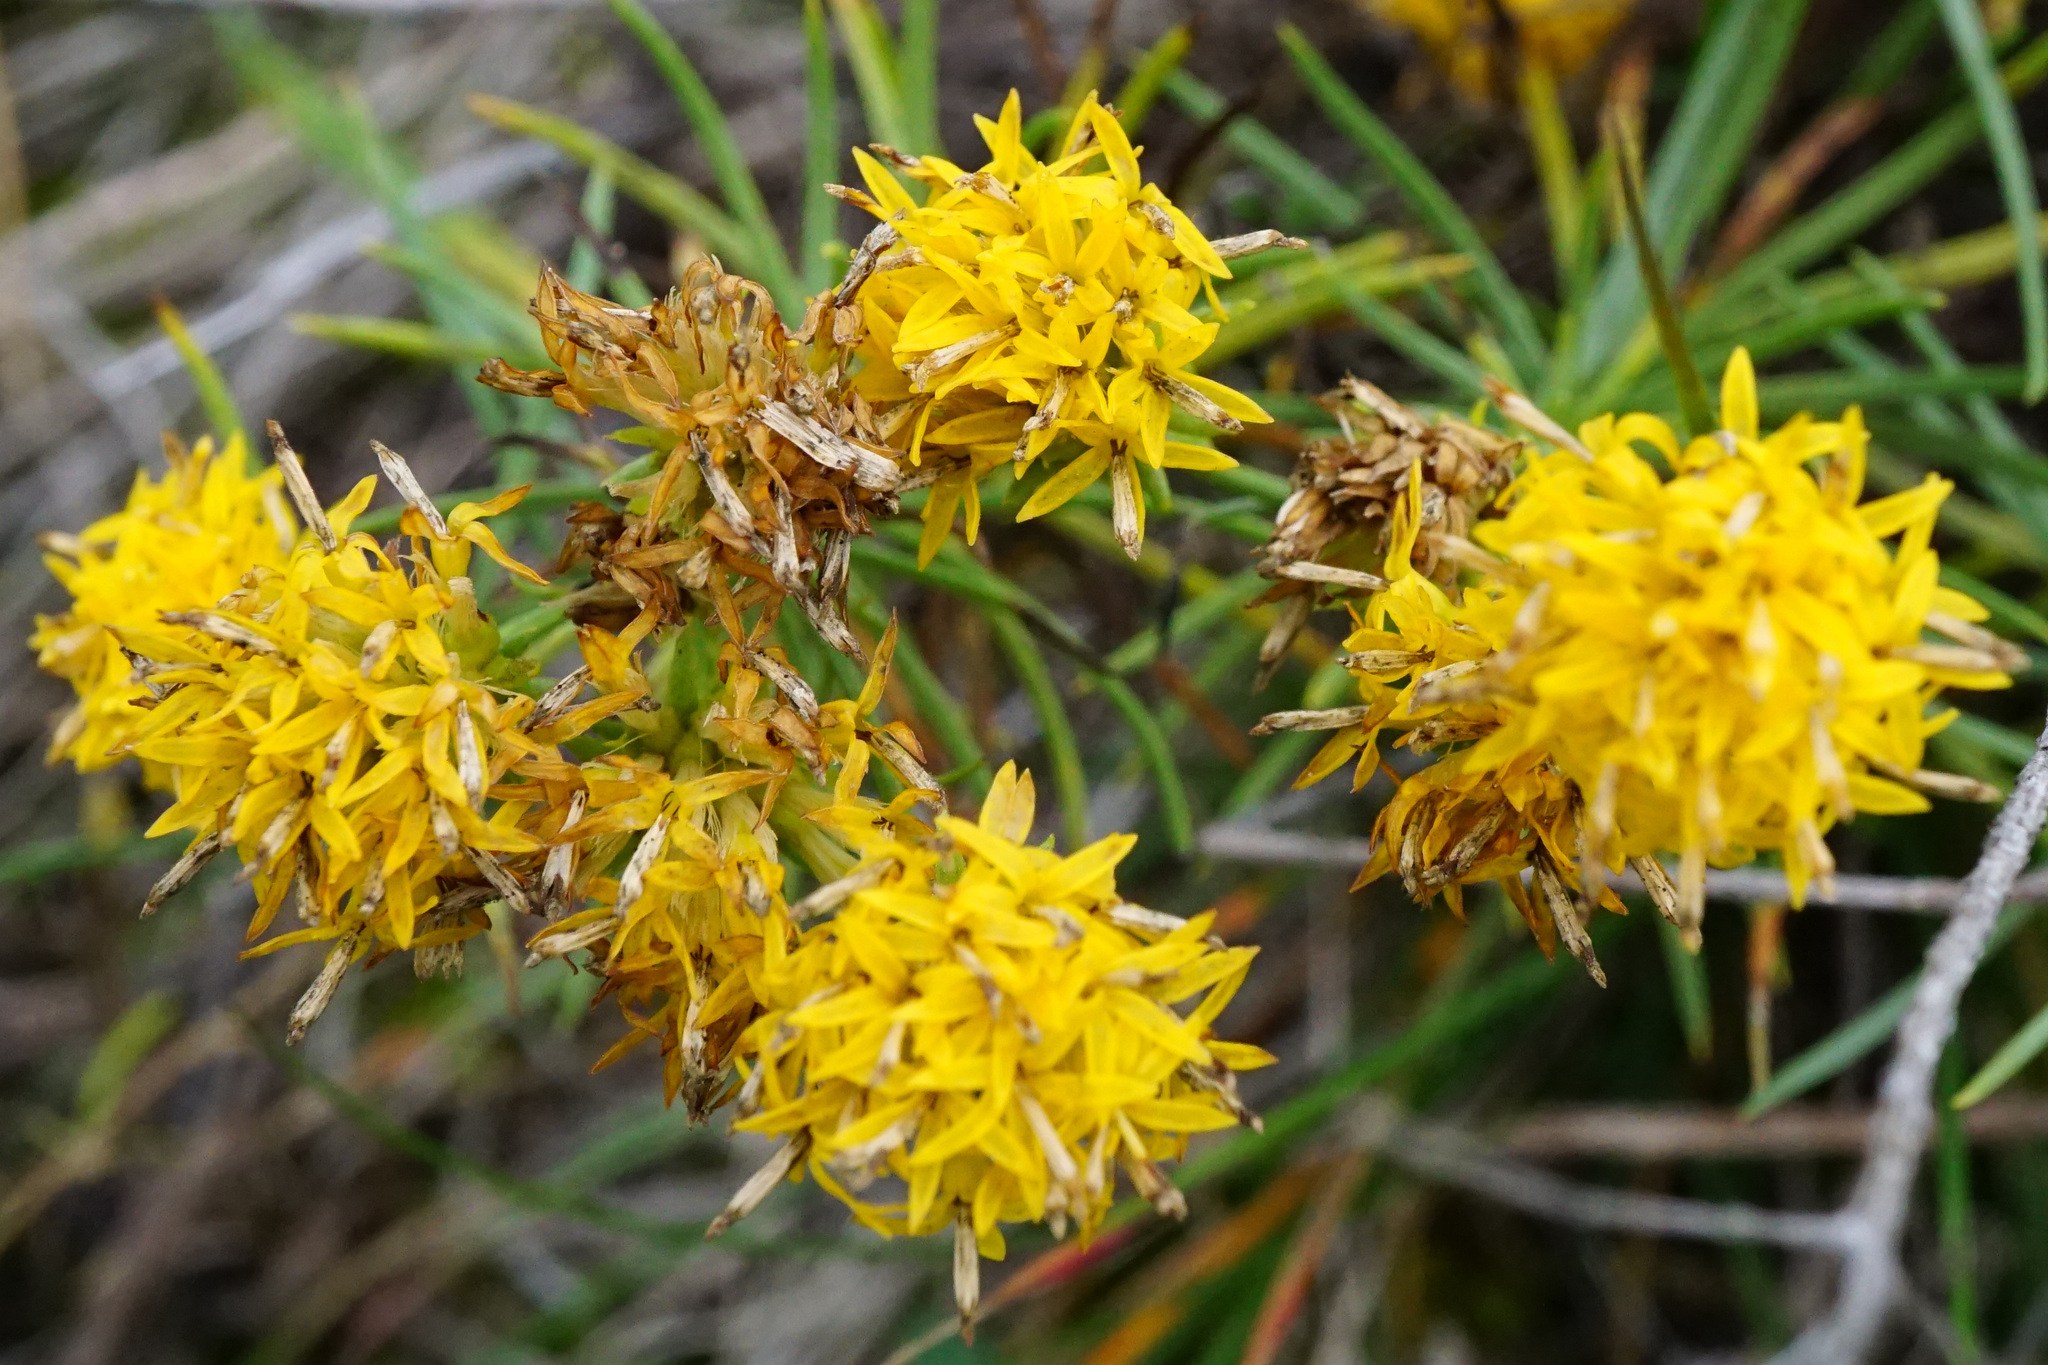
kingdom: Plantae
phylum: Tracheophyta
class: Magnoliopsida
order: Asterales
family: Asteraceae
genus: Galatella
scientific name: Galatella linosyris
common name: Goldilocks aster
